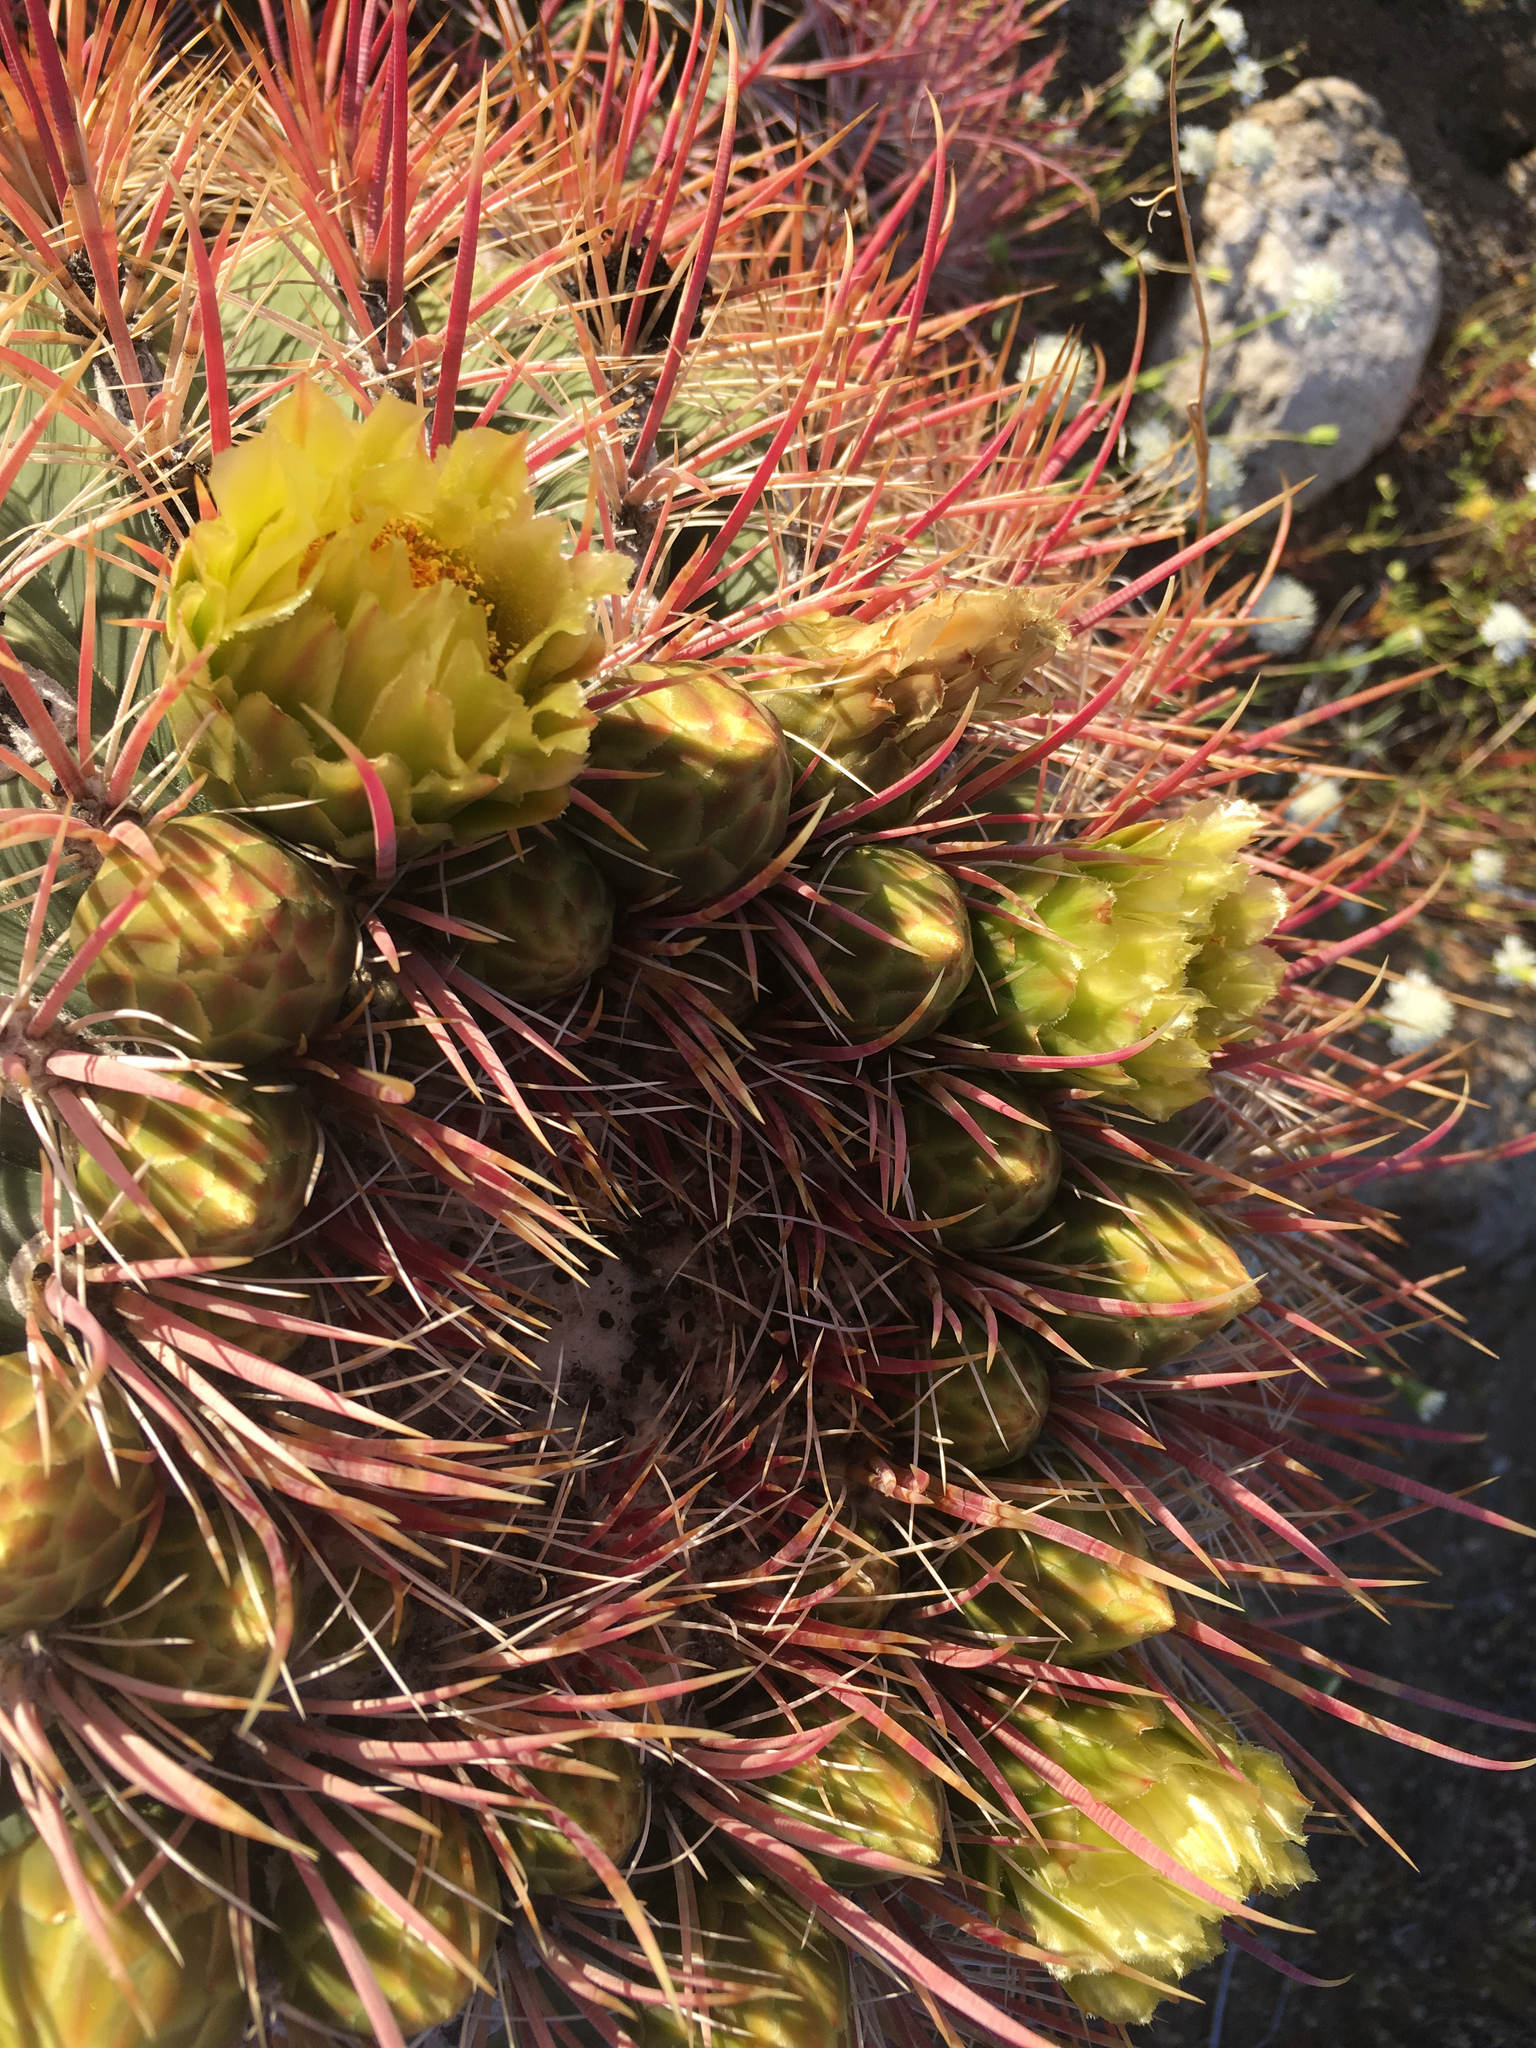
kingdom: Plantae
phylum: Tracheophyta
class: Magnoliopsida
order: Caryophyllales
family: Cactaceae
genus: Ferocactus
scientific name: Ferocactus cylindraceus
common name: California barrel cactus
